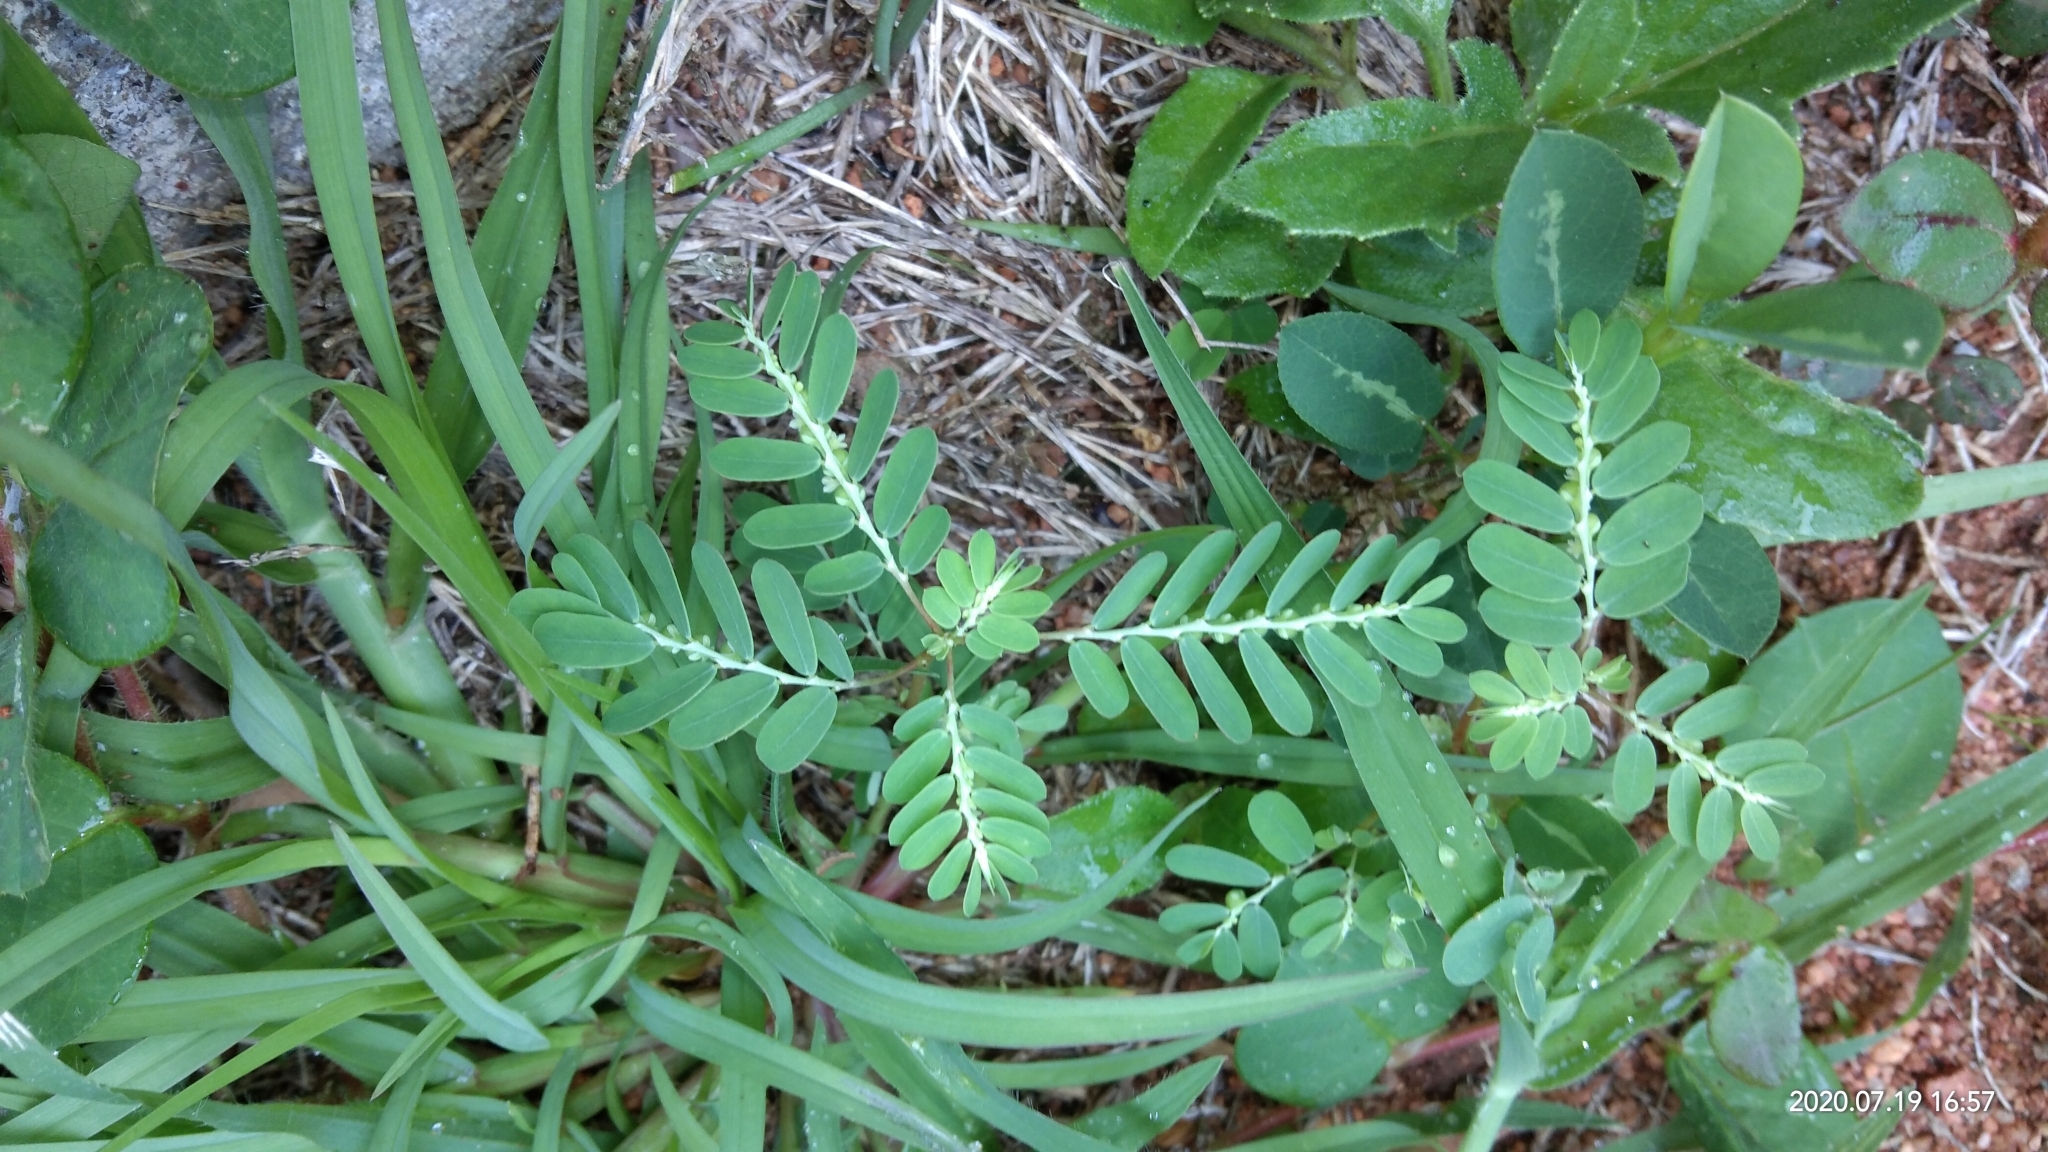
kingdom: Plantae
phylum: Tracheophyta
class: Magnoliopsida
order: Malpighiales
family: Phyllanthaceae
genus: Phyllanthus
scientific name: Phyllanthus niruri
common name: Niruri
